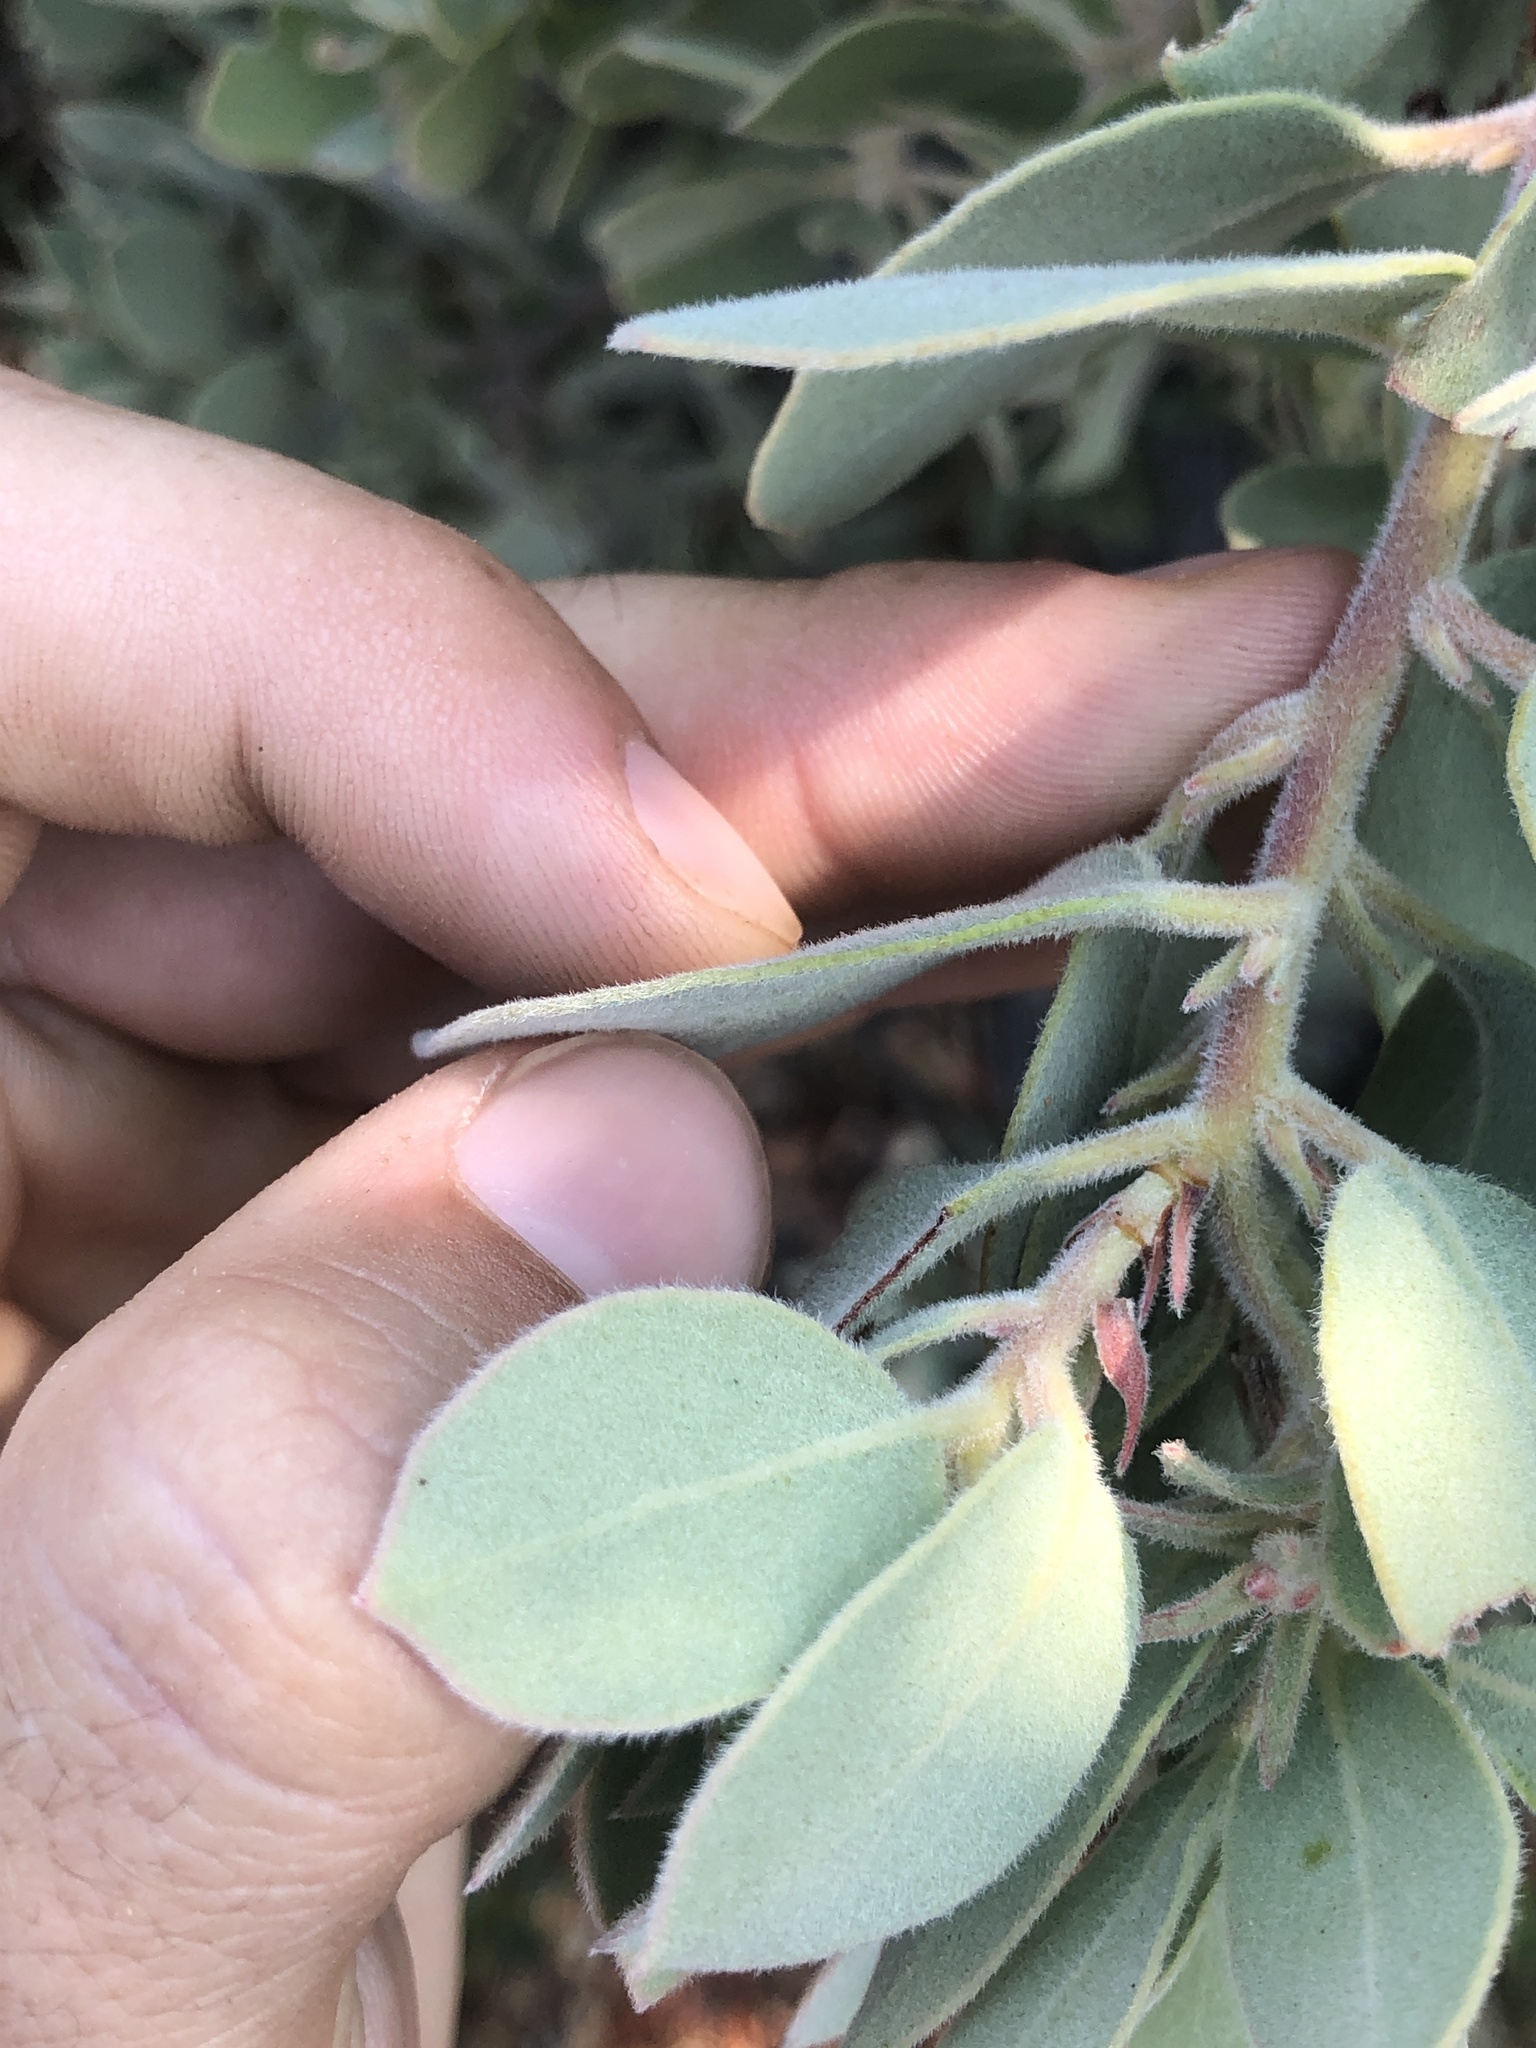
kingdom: Plantae
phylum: Tracheophyta
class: Magnoliopsida
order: Ericales
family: Ericaceae
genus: Arctostaphylos
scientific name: Arctostaphylos canescens
